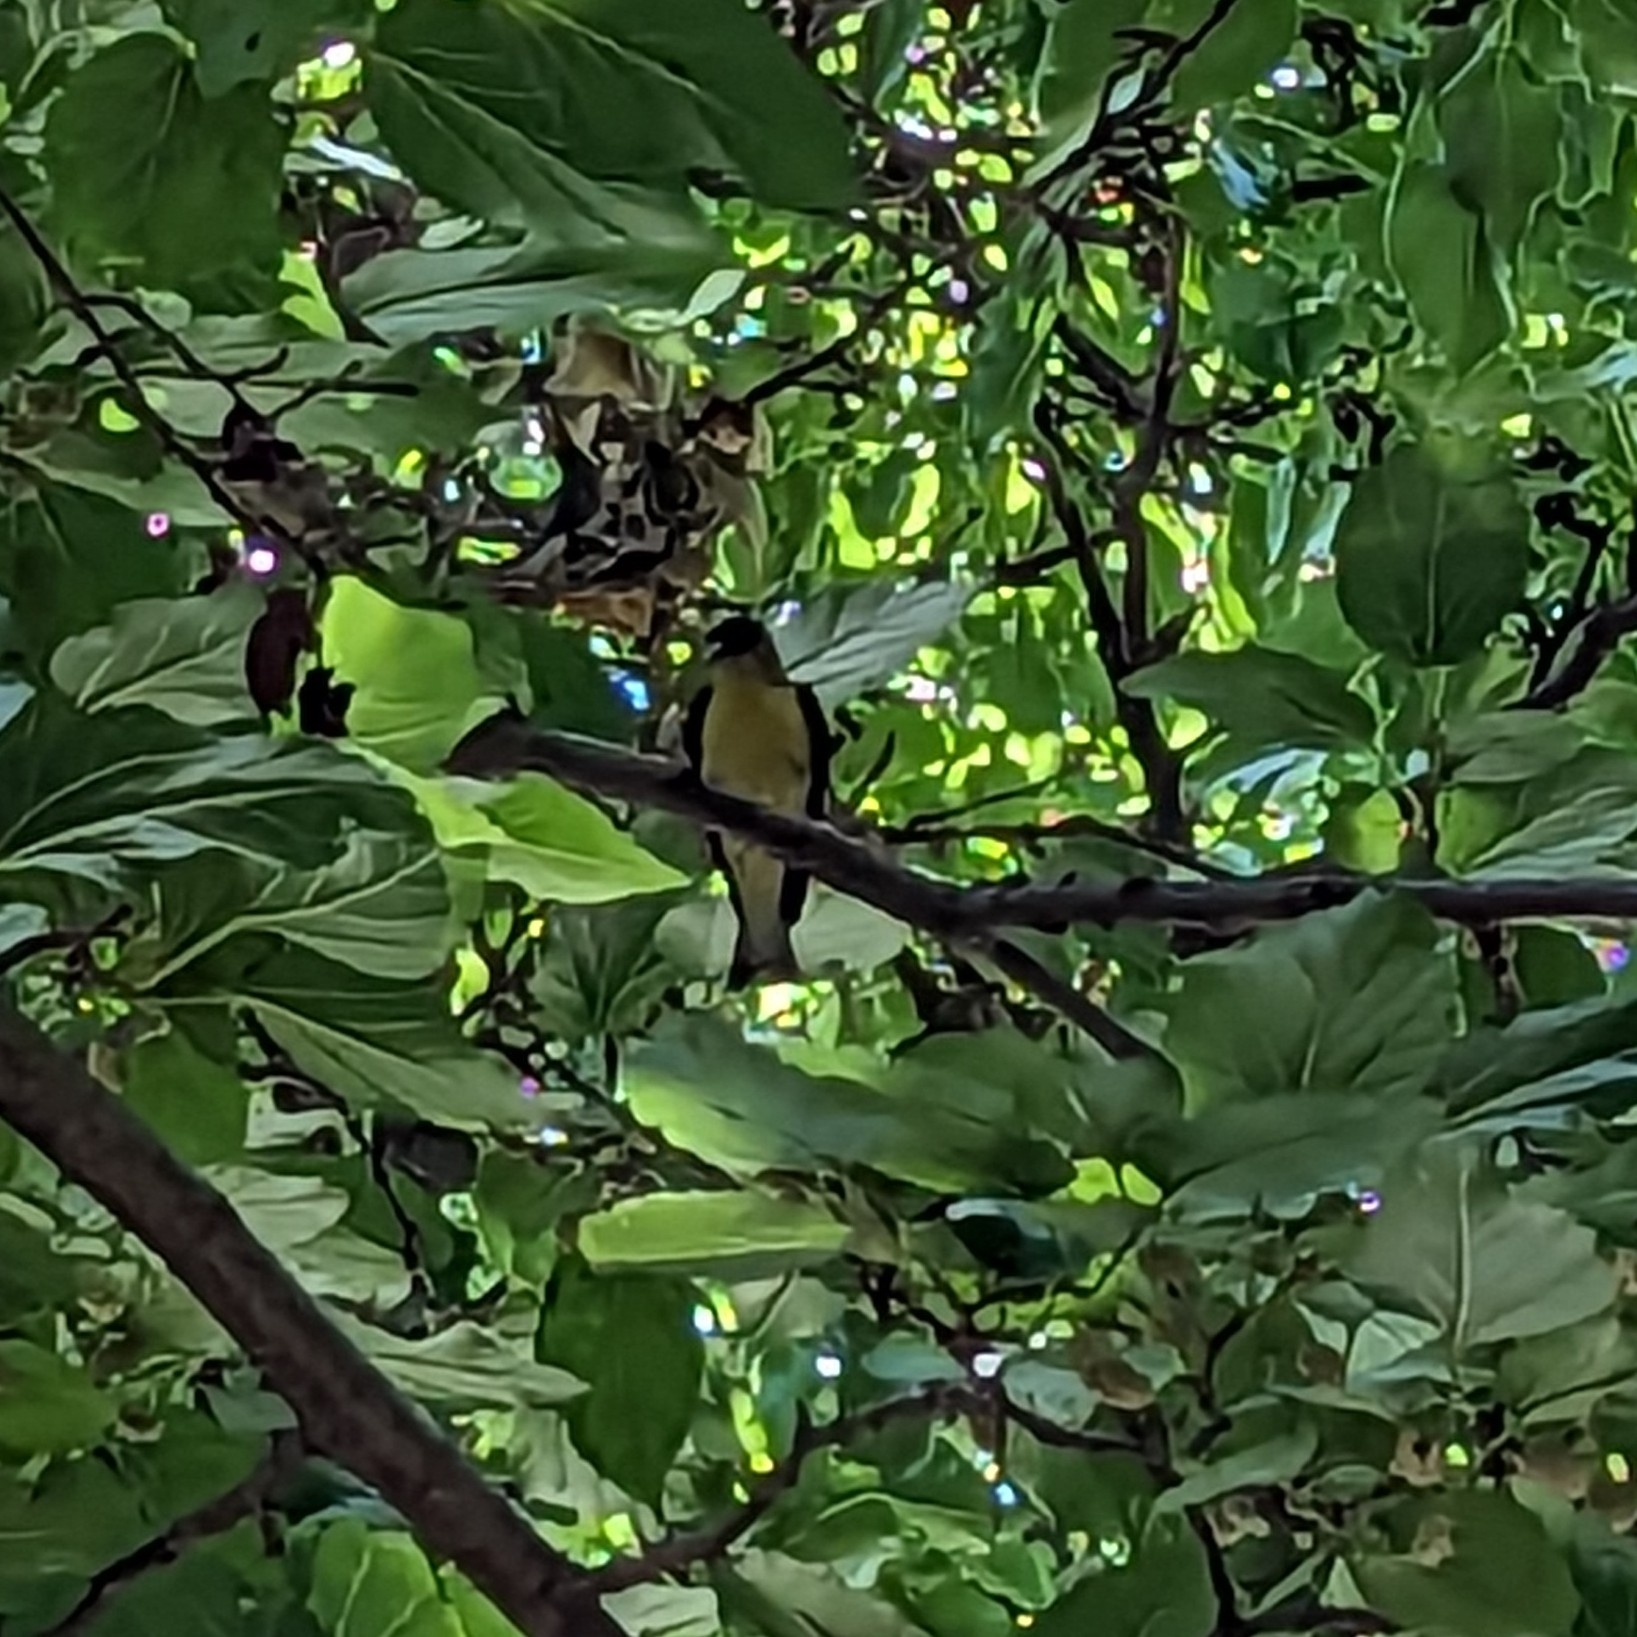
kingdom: Animalia
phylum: Chordata
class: Aves
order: Passeriformes
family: Fringillidae
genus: Spinus
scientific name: Spinus psaltria
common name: Lesser goldfinch
